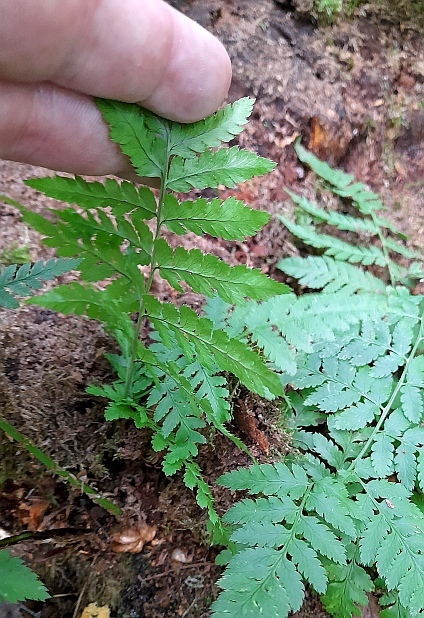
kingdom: Plantae
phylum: Tracheophyta
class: Polypodiopsida
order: Polypodiales
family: Dryopteridaceae
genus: Dryopteris
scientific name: Dryopteris carthusiana
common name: Narrow buckler-fern
